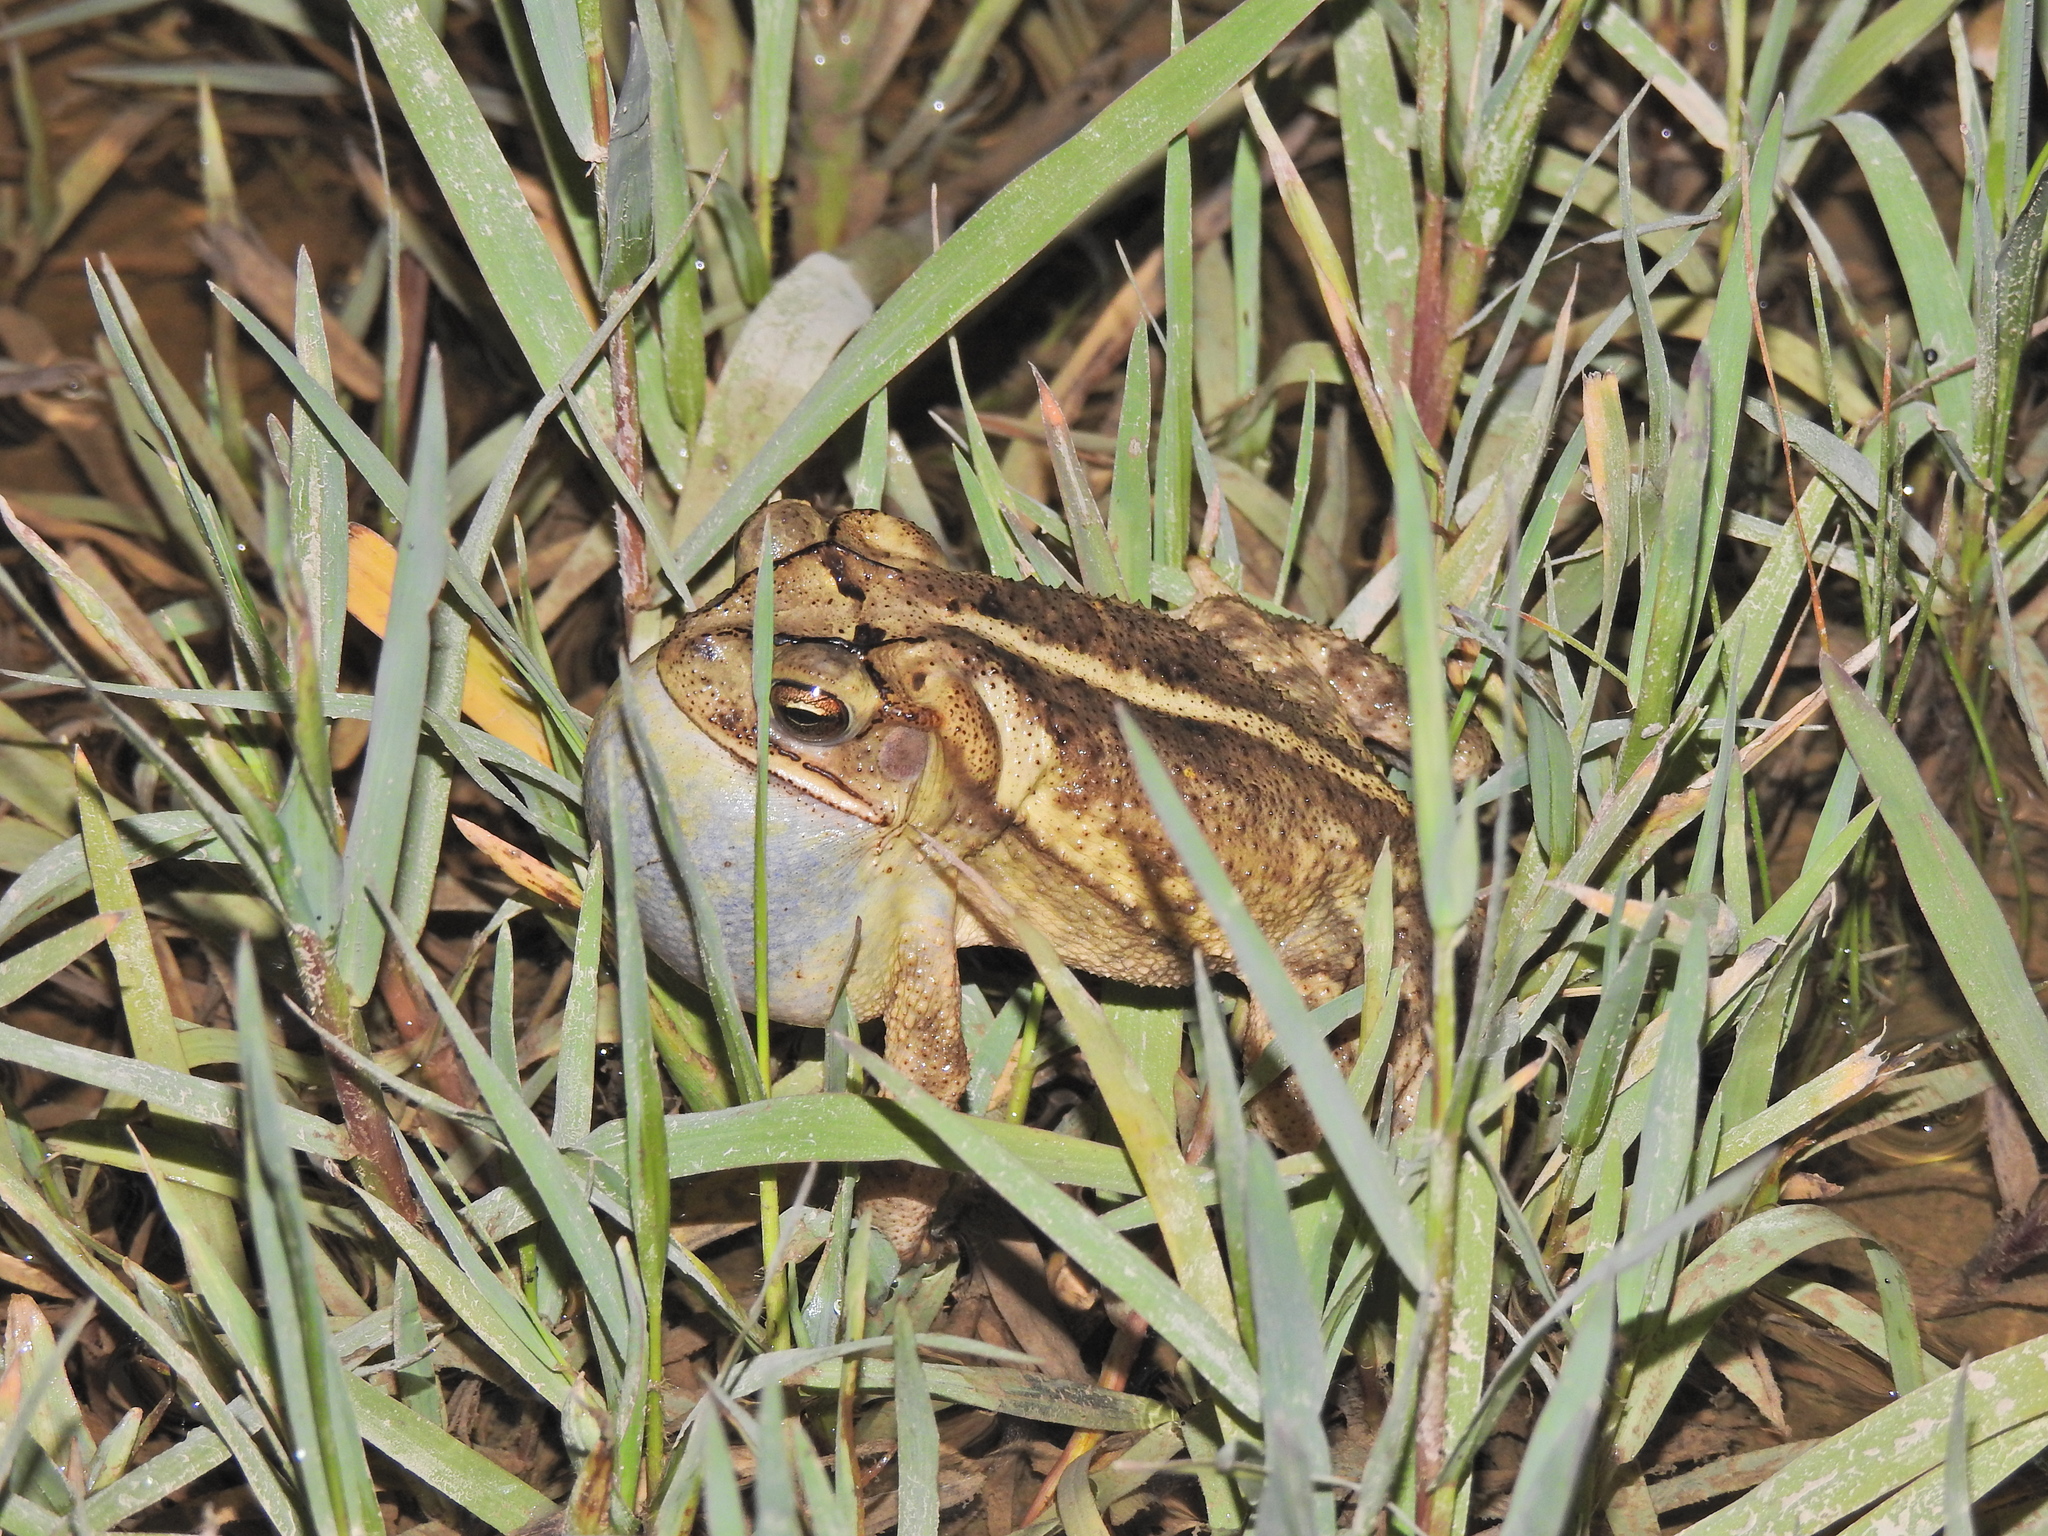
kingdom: Animalia
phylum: Chordata
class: Amphibia
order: Anura
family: Bufonidae
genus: Incilius
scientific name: Incilius nebulifer
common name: Gulf coast toad
